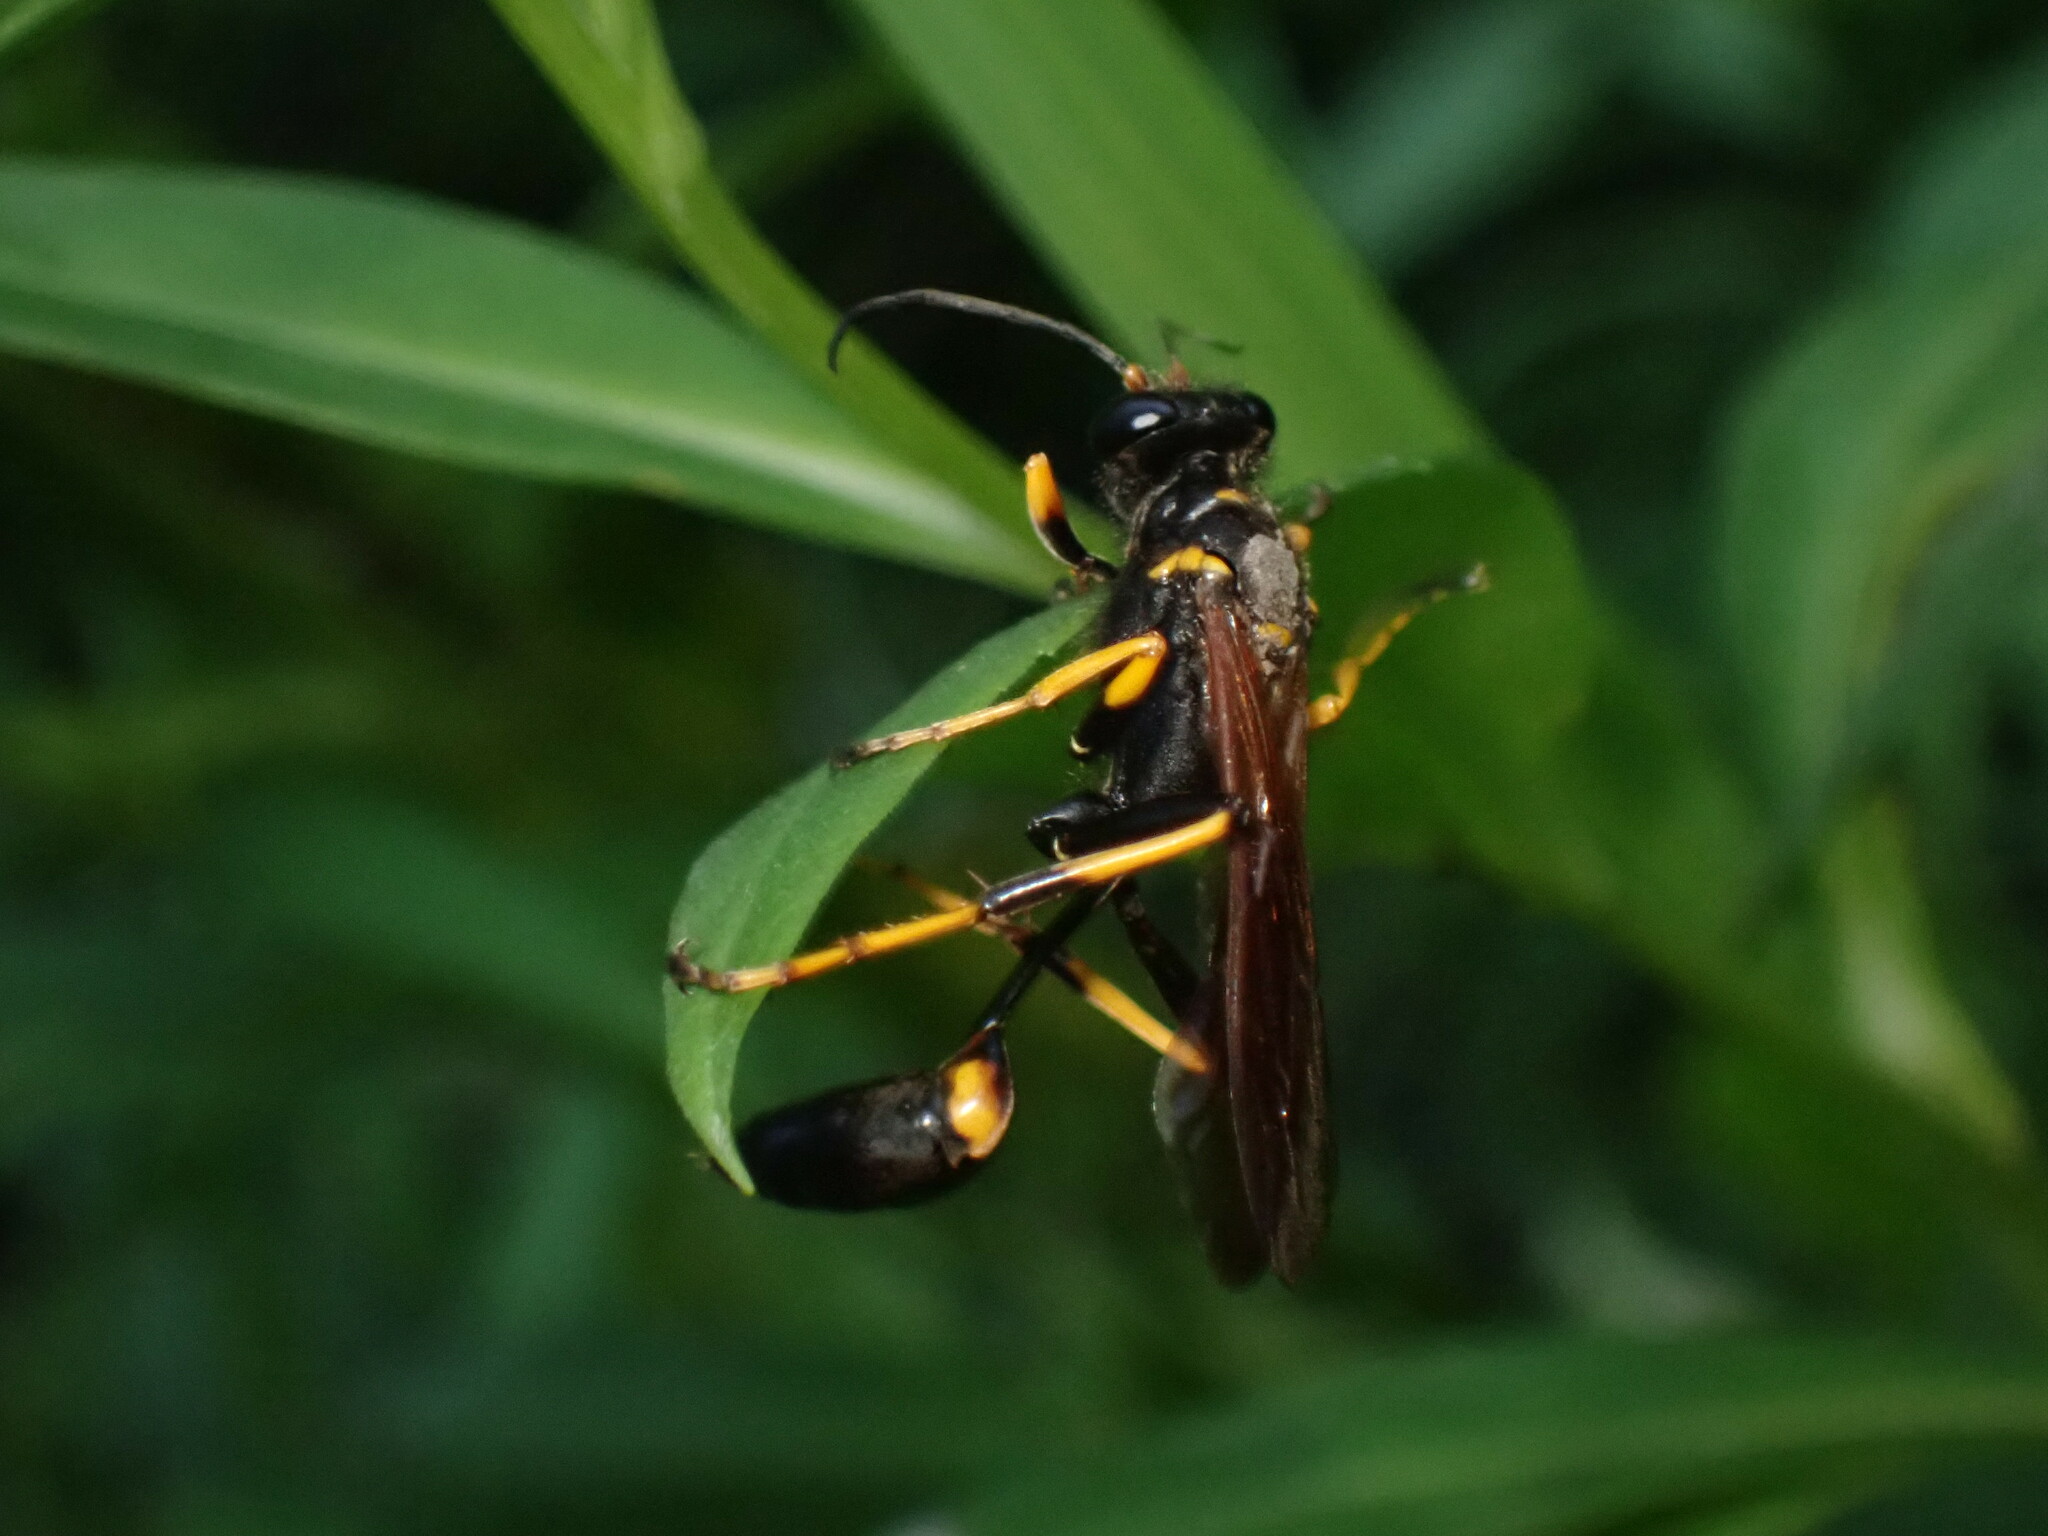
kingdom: Animalia
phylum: Arthropoda
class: Insecta
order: Hymenoptera
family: Sphecidae
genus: Sceliphron
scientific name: Sceliphron caementarium
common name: Mud dauber
